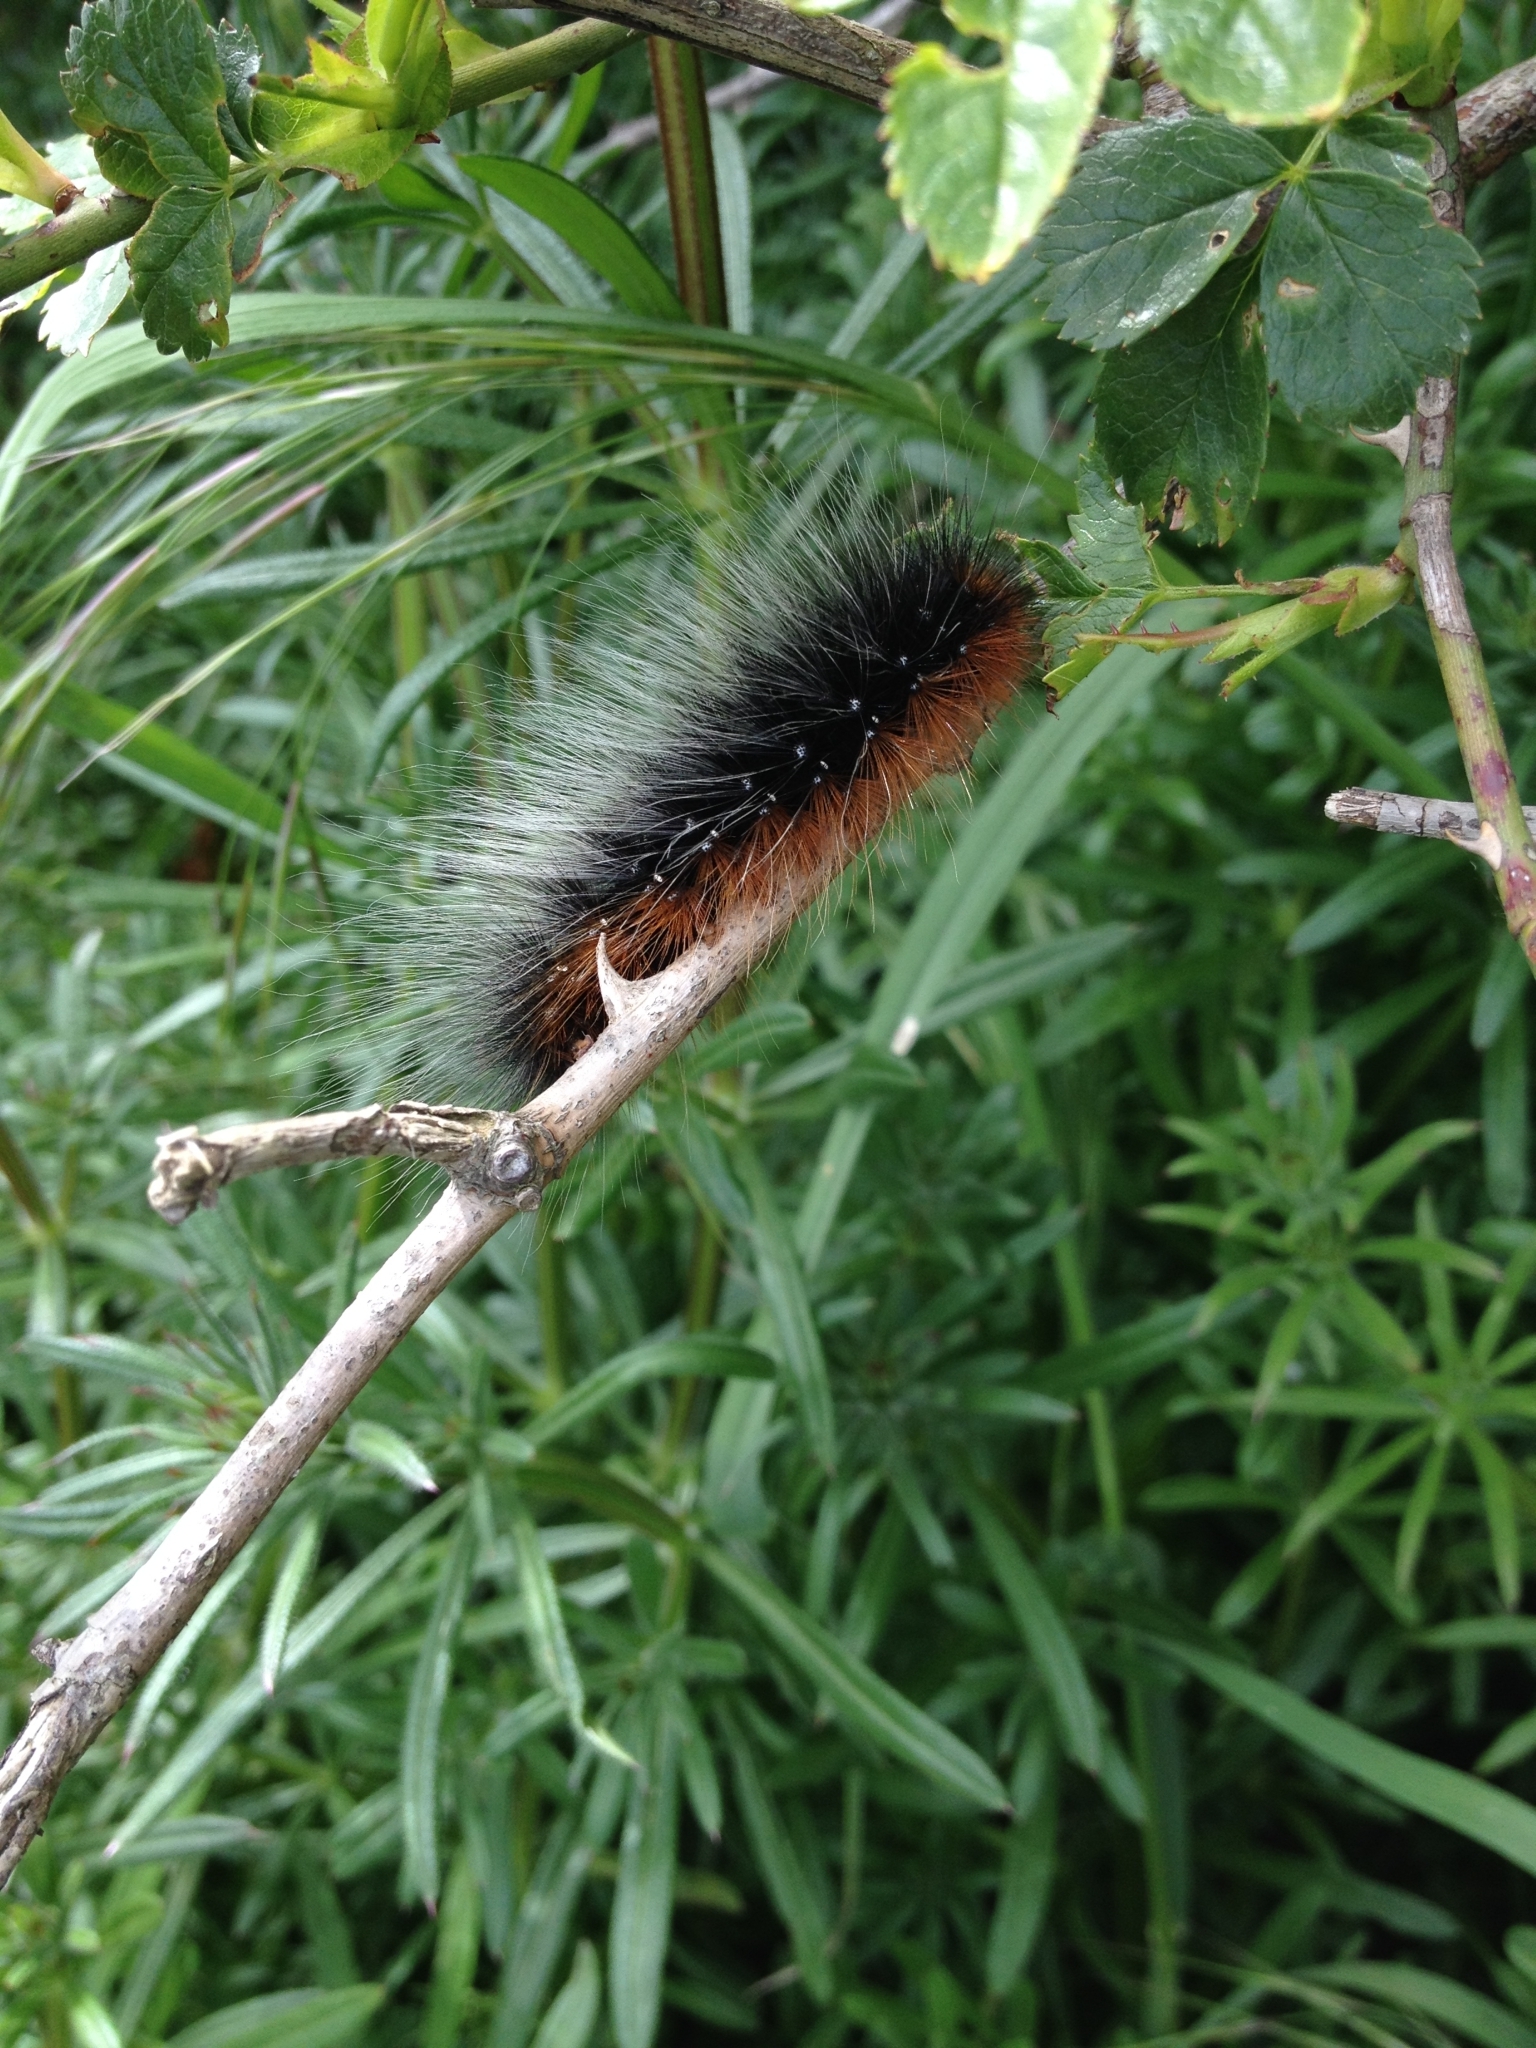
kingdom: Animalia
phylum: Arthropoda
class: Insecta
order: Lepidoptera
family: Erebidae
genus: Arctia
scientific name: Arctia caja
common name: Garden tiger
